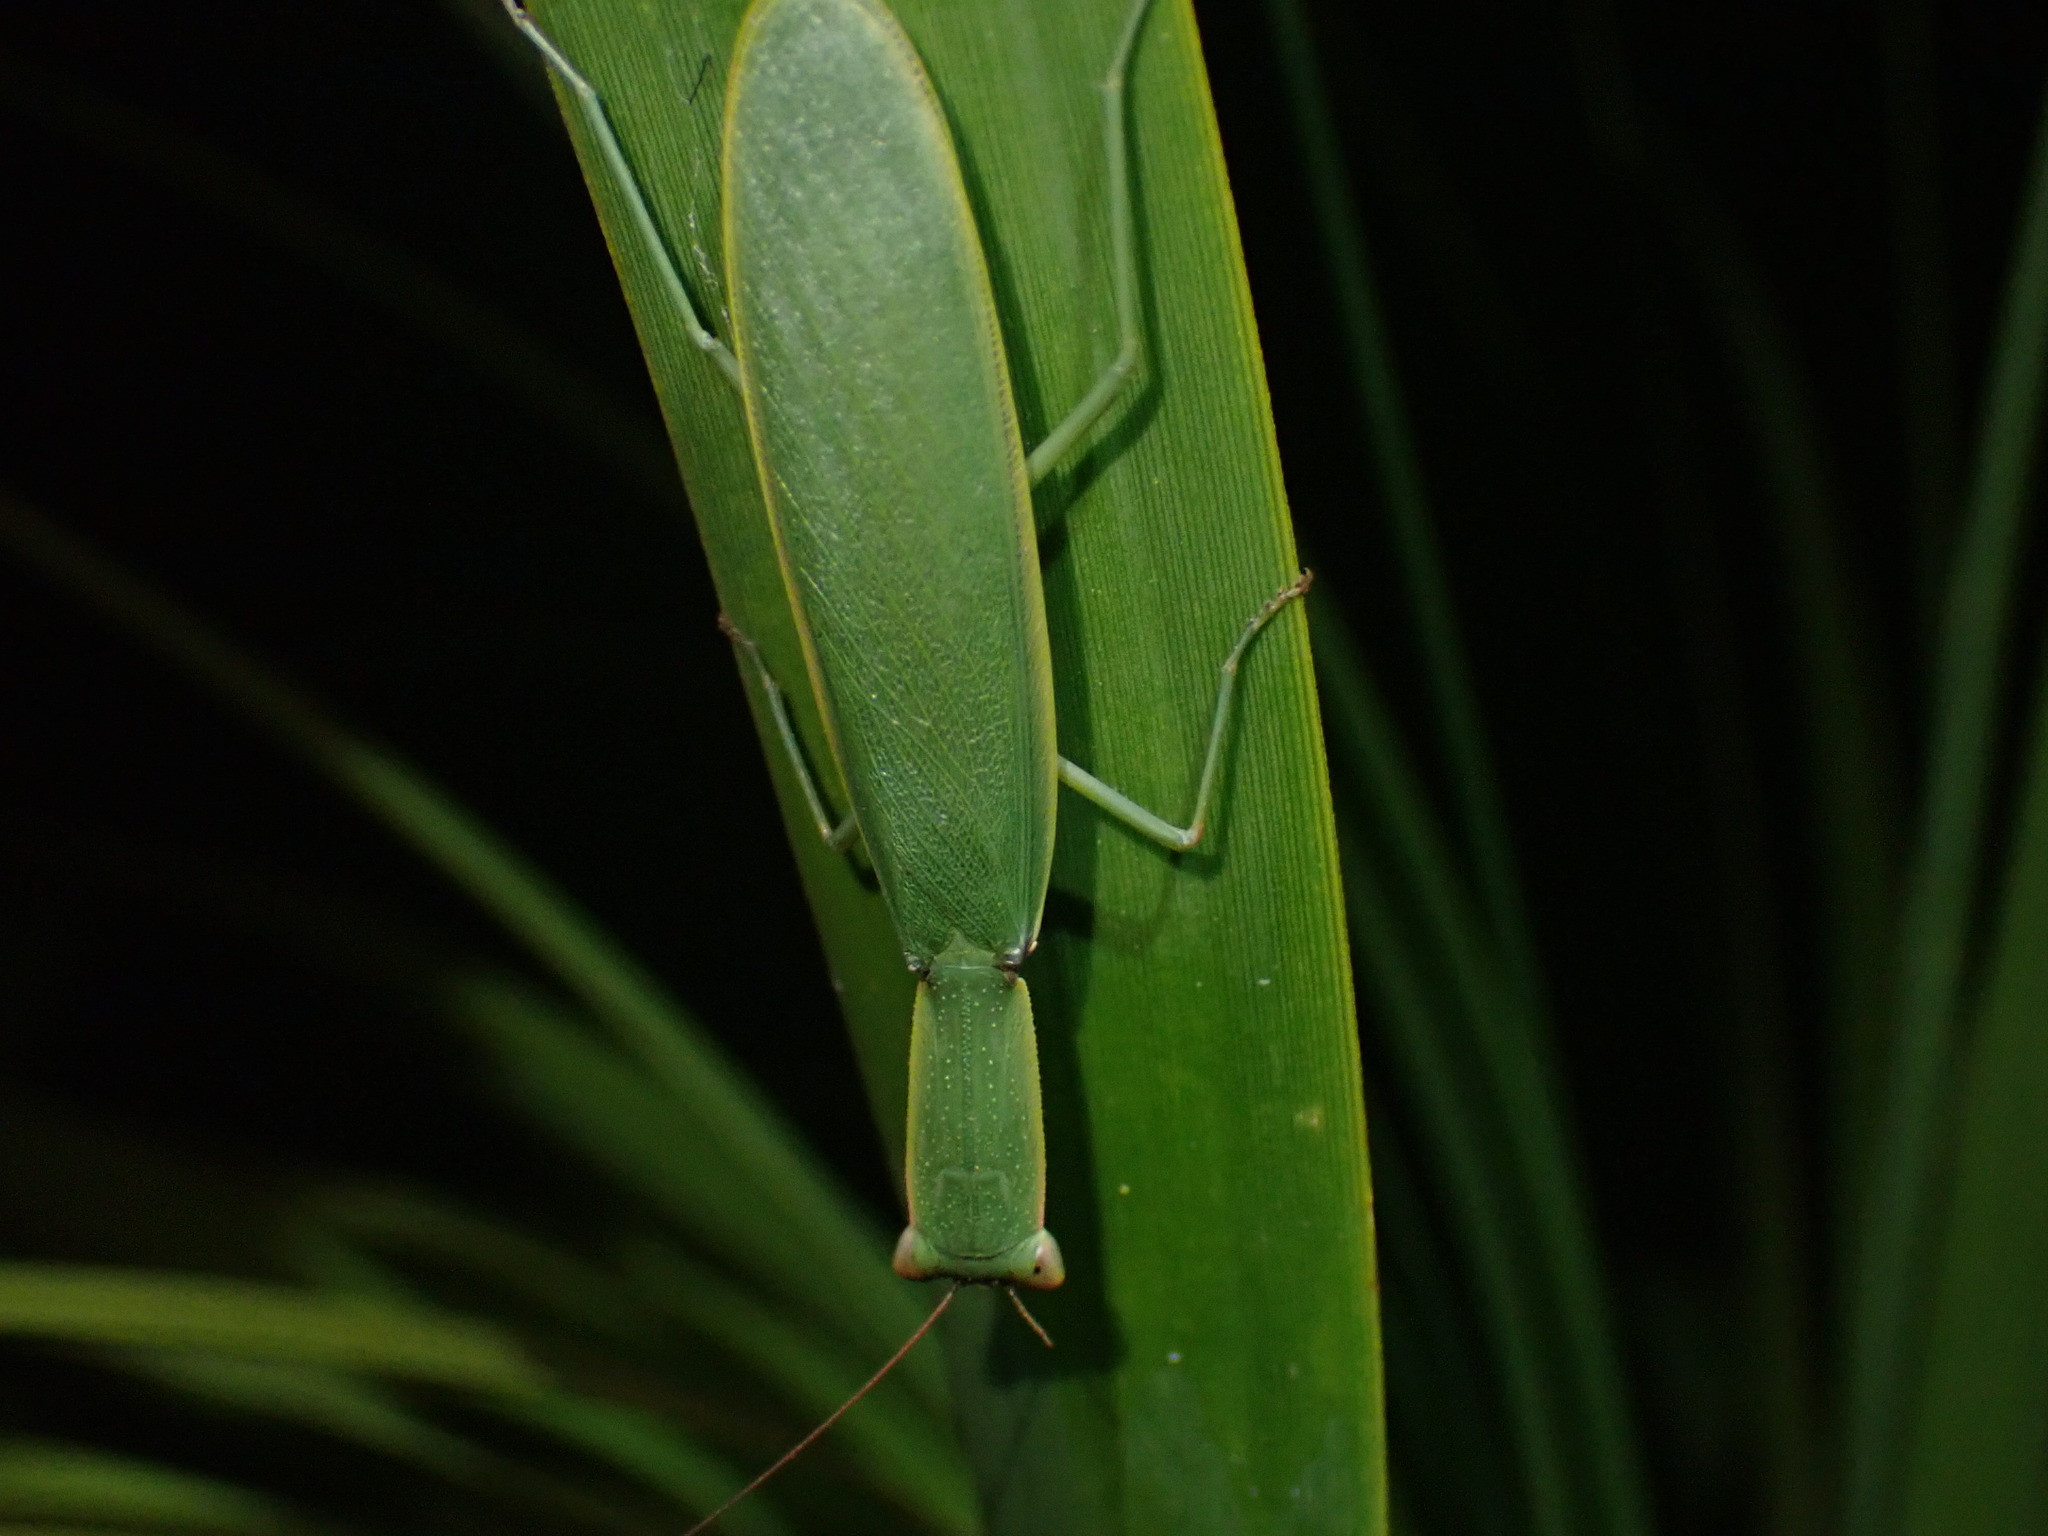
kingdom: Animalia
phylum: Arthropoda
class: Insecta
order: Mantodea
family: Mantidae
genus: Orthodera
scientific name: Orthodera novaezealandiae
